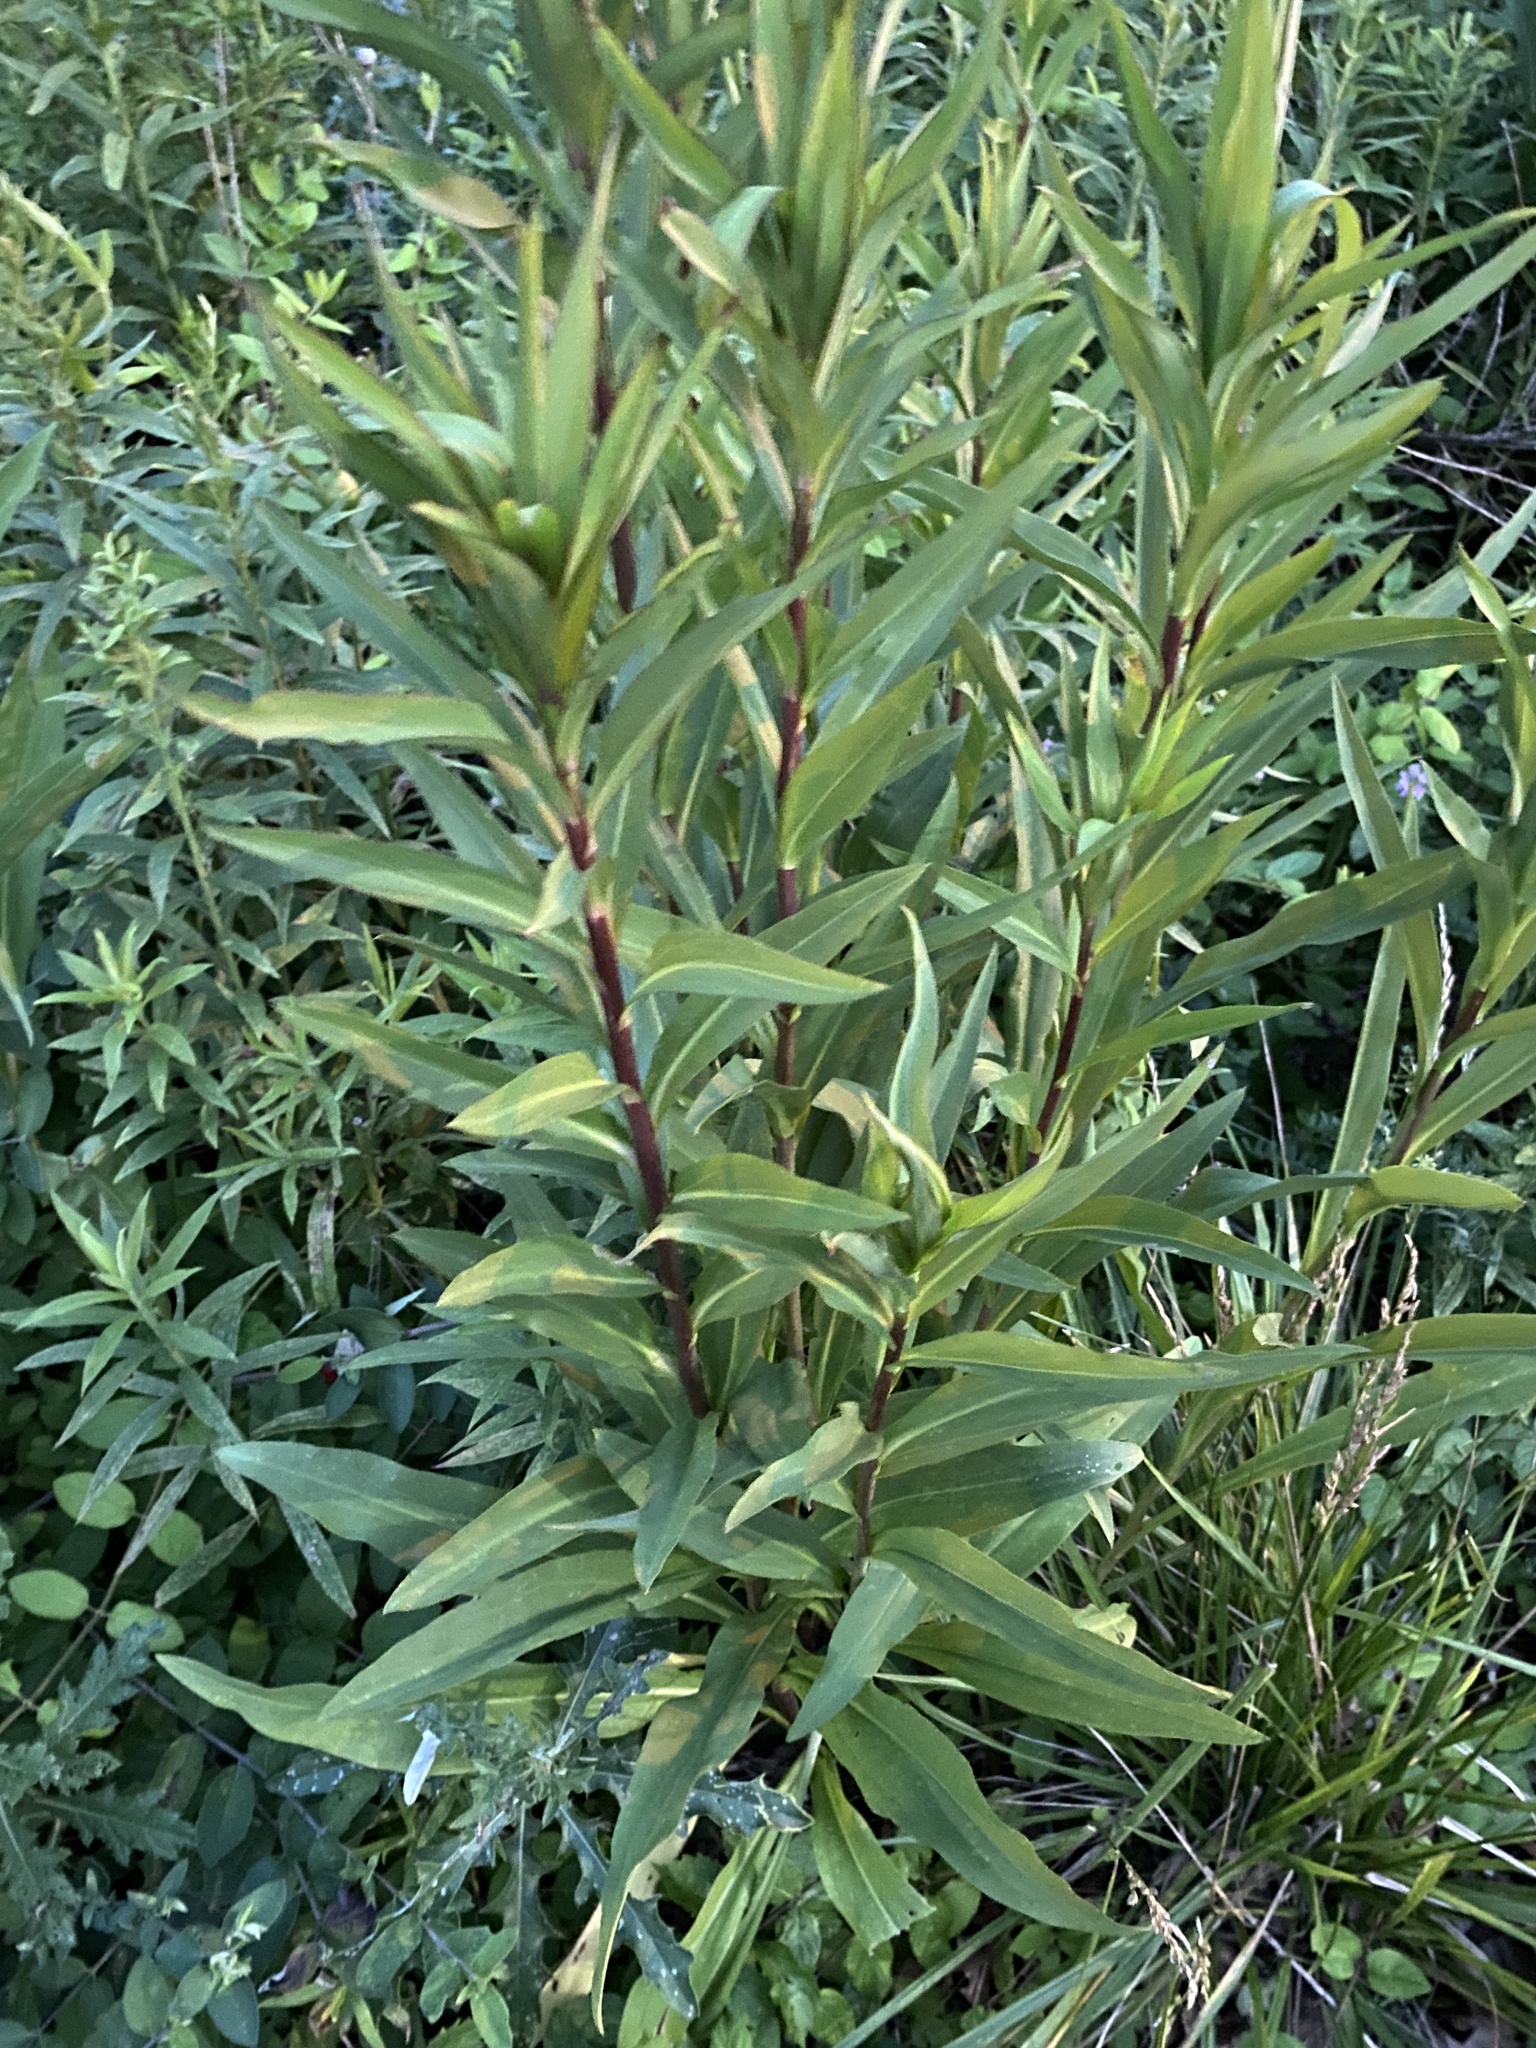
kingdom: Plantae
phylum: Tracheophyta
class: Magnoliopsida
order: Asterales
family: Asteraceae
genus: Solidago
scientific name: Solidago sempervirens
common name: Salt-marsh goldenrod
